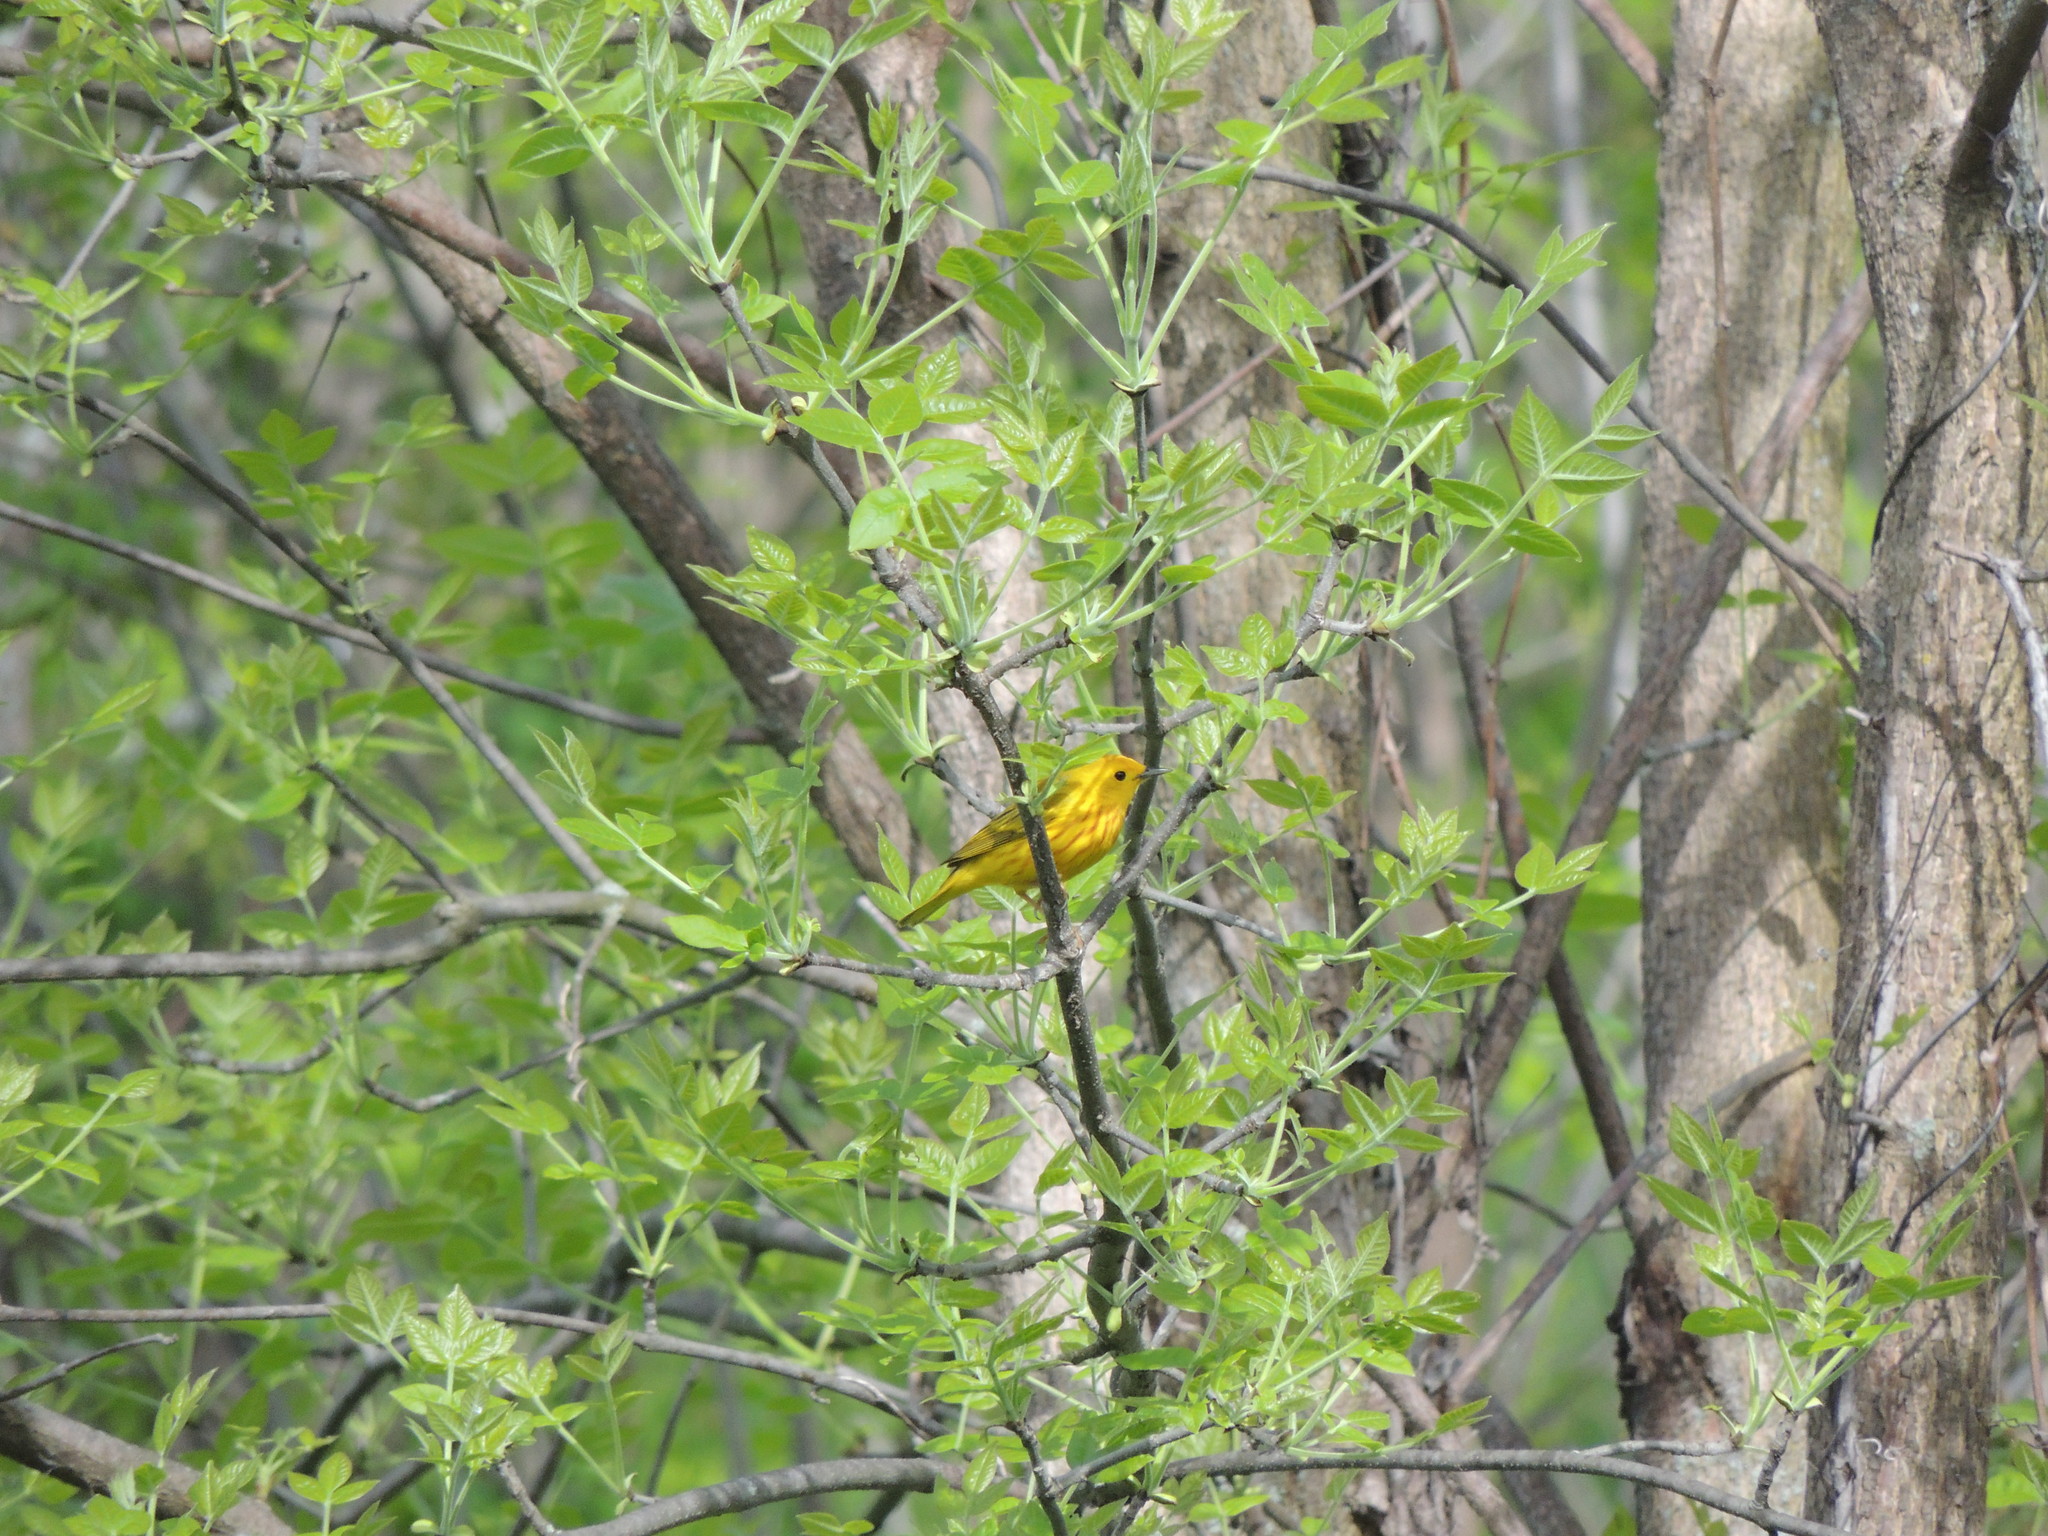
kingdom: Animalia
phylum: Chordata
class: Aves
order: Passeriformes
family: Parulidae
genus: Setophaga
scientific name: Setophaga petechia
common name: Yellow warbler
